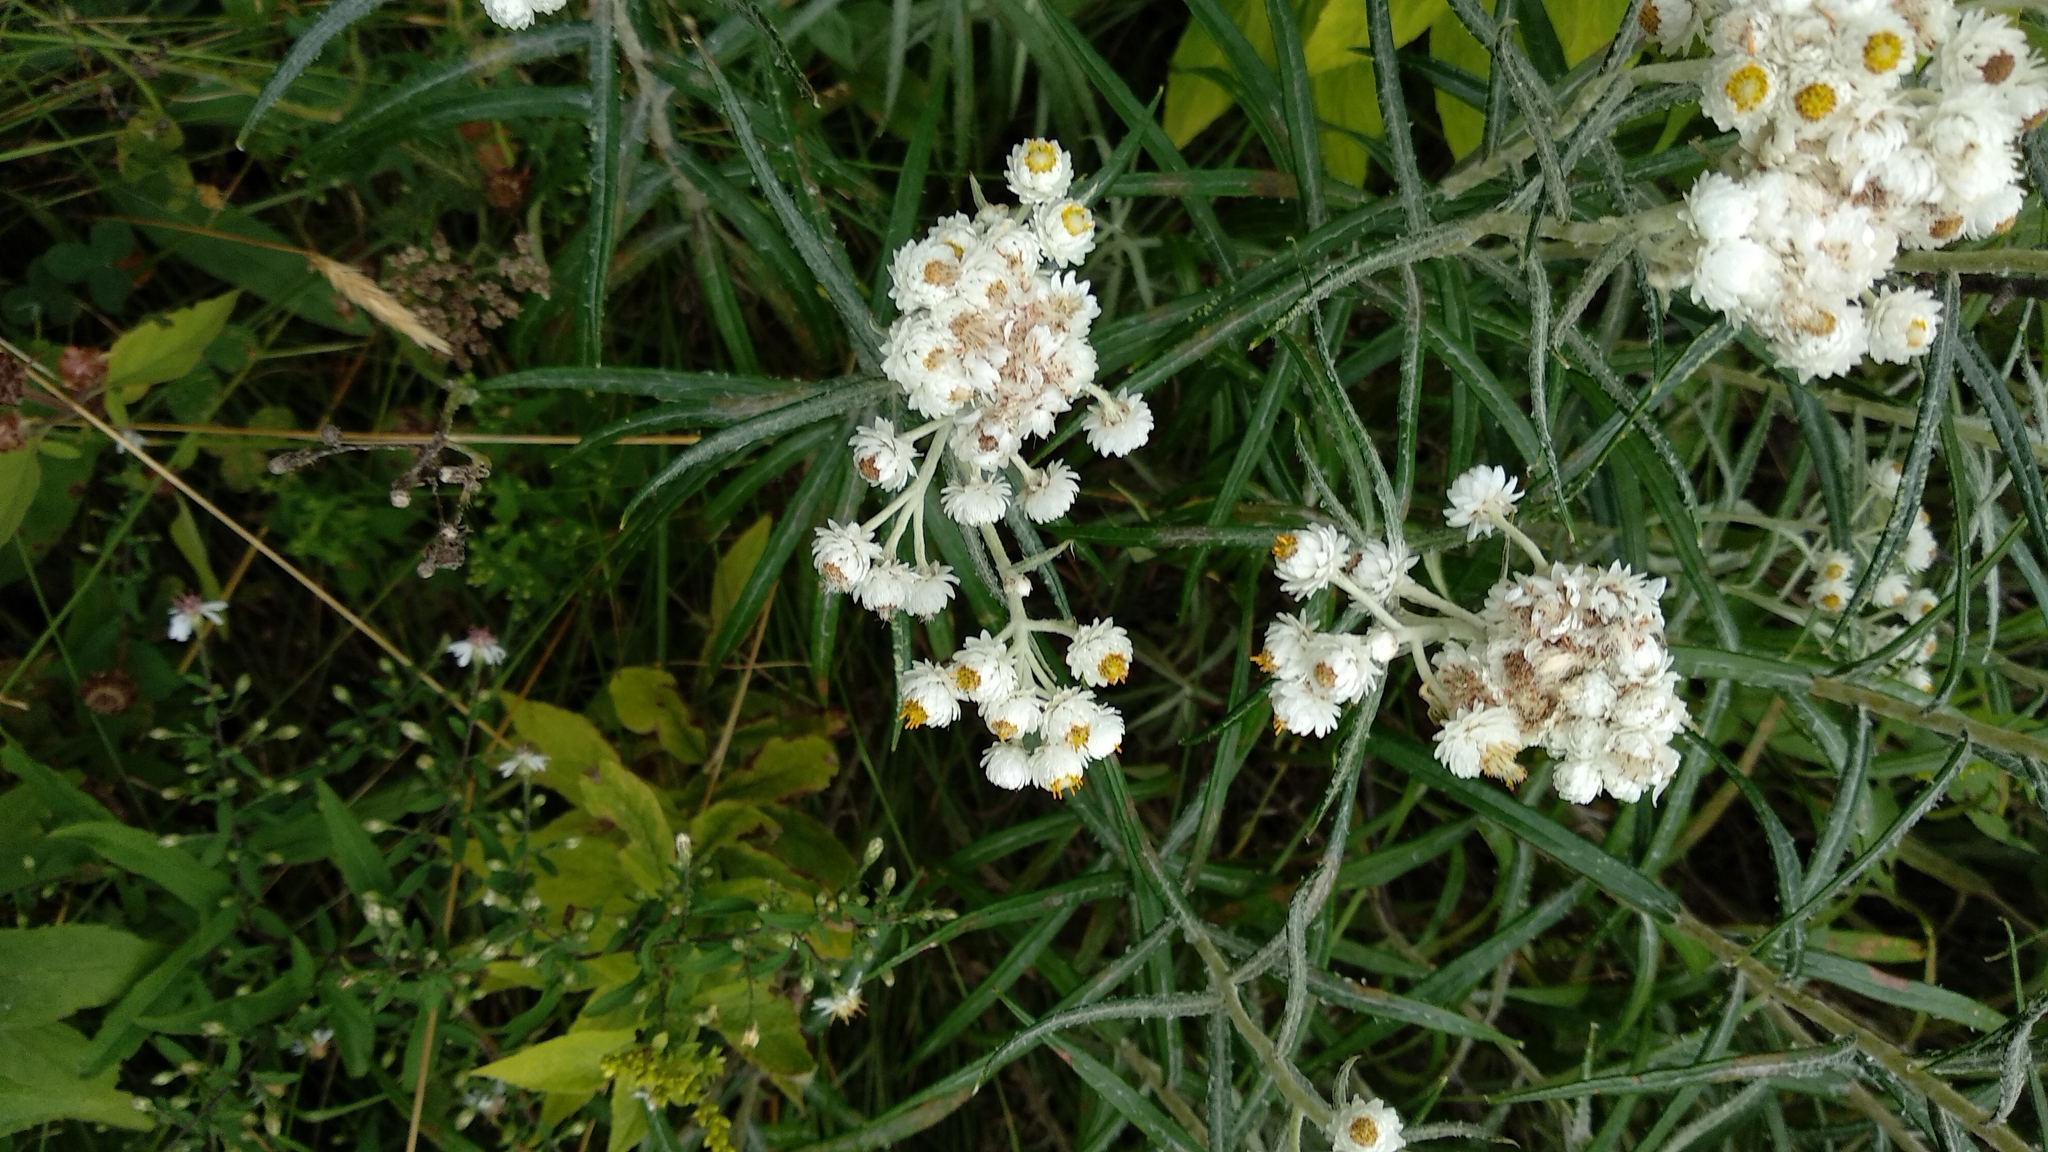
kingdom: Plantae
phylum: Tracheophyta
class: Magnoliopsida
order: Asterales
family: Asteraceae
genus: Anaphalis
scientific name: Anaphalis margaritacea
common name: Pearly everlasting
